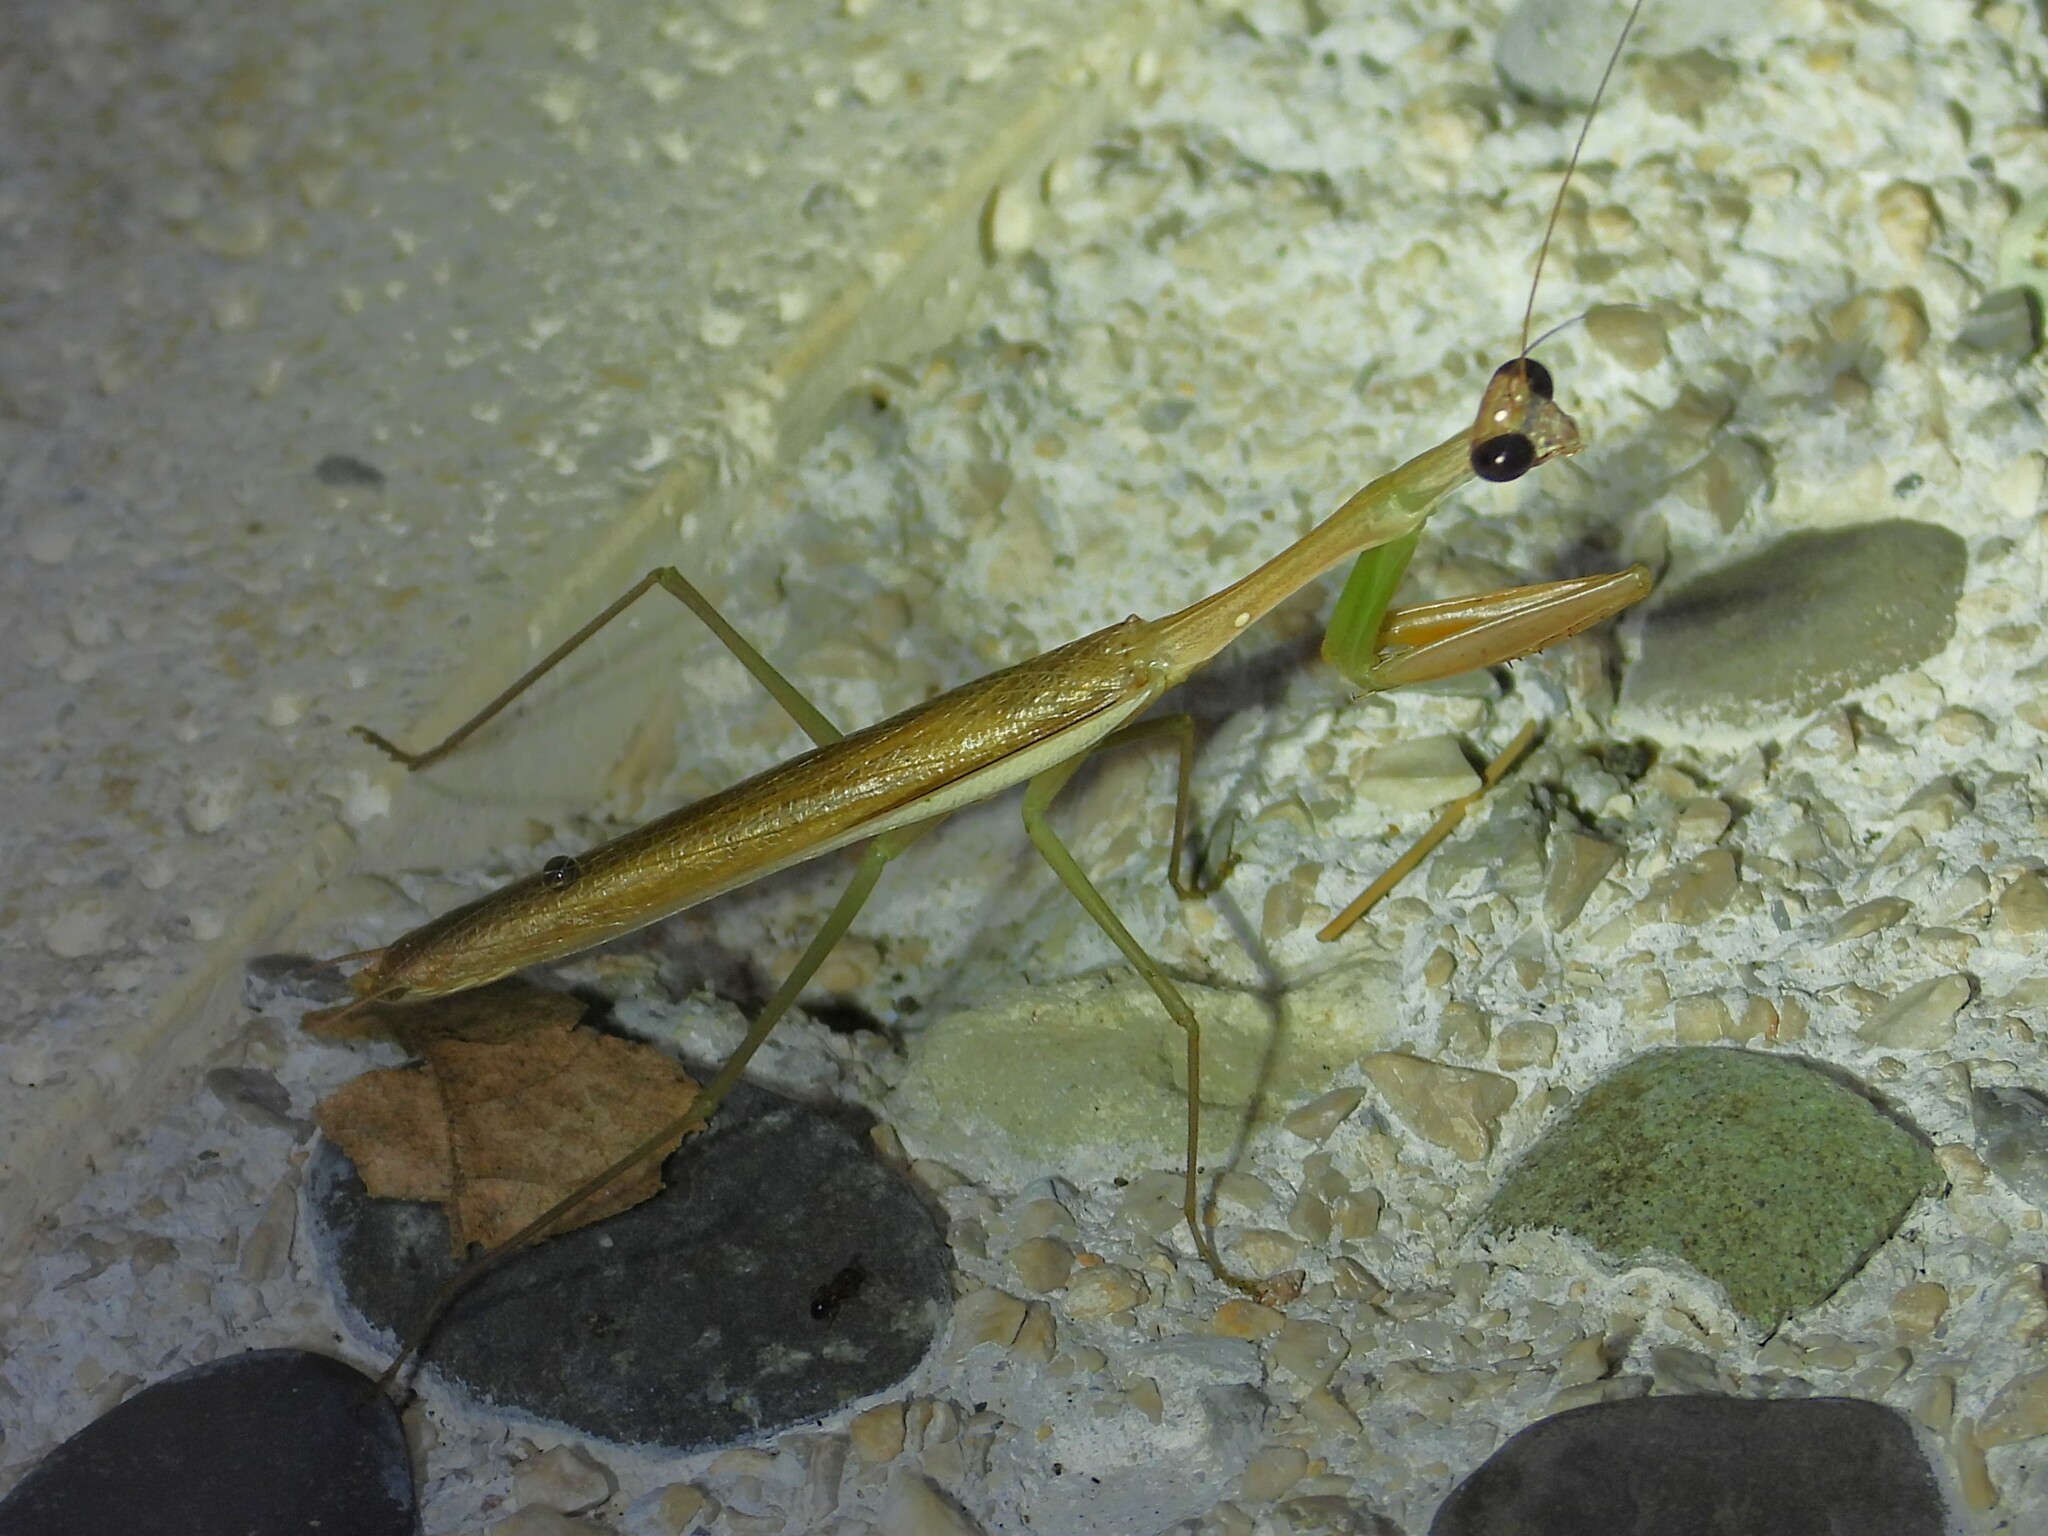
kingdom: Animalia
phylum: Arthropoda
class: Insecta
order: Mantodea
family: Mantidae
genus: Stagmomantis
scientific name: Stagmomantis nahua
